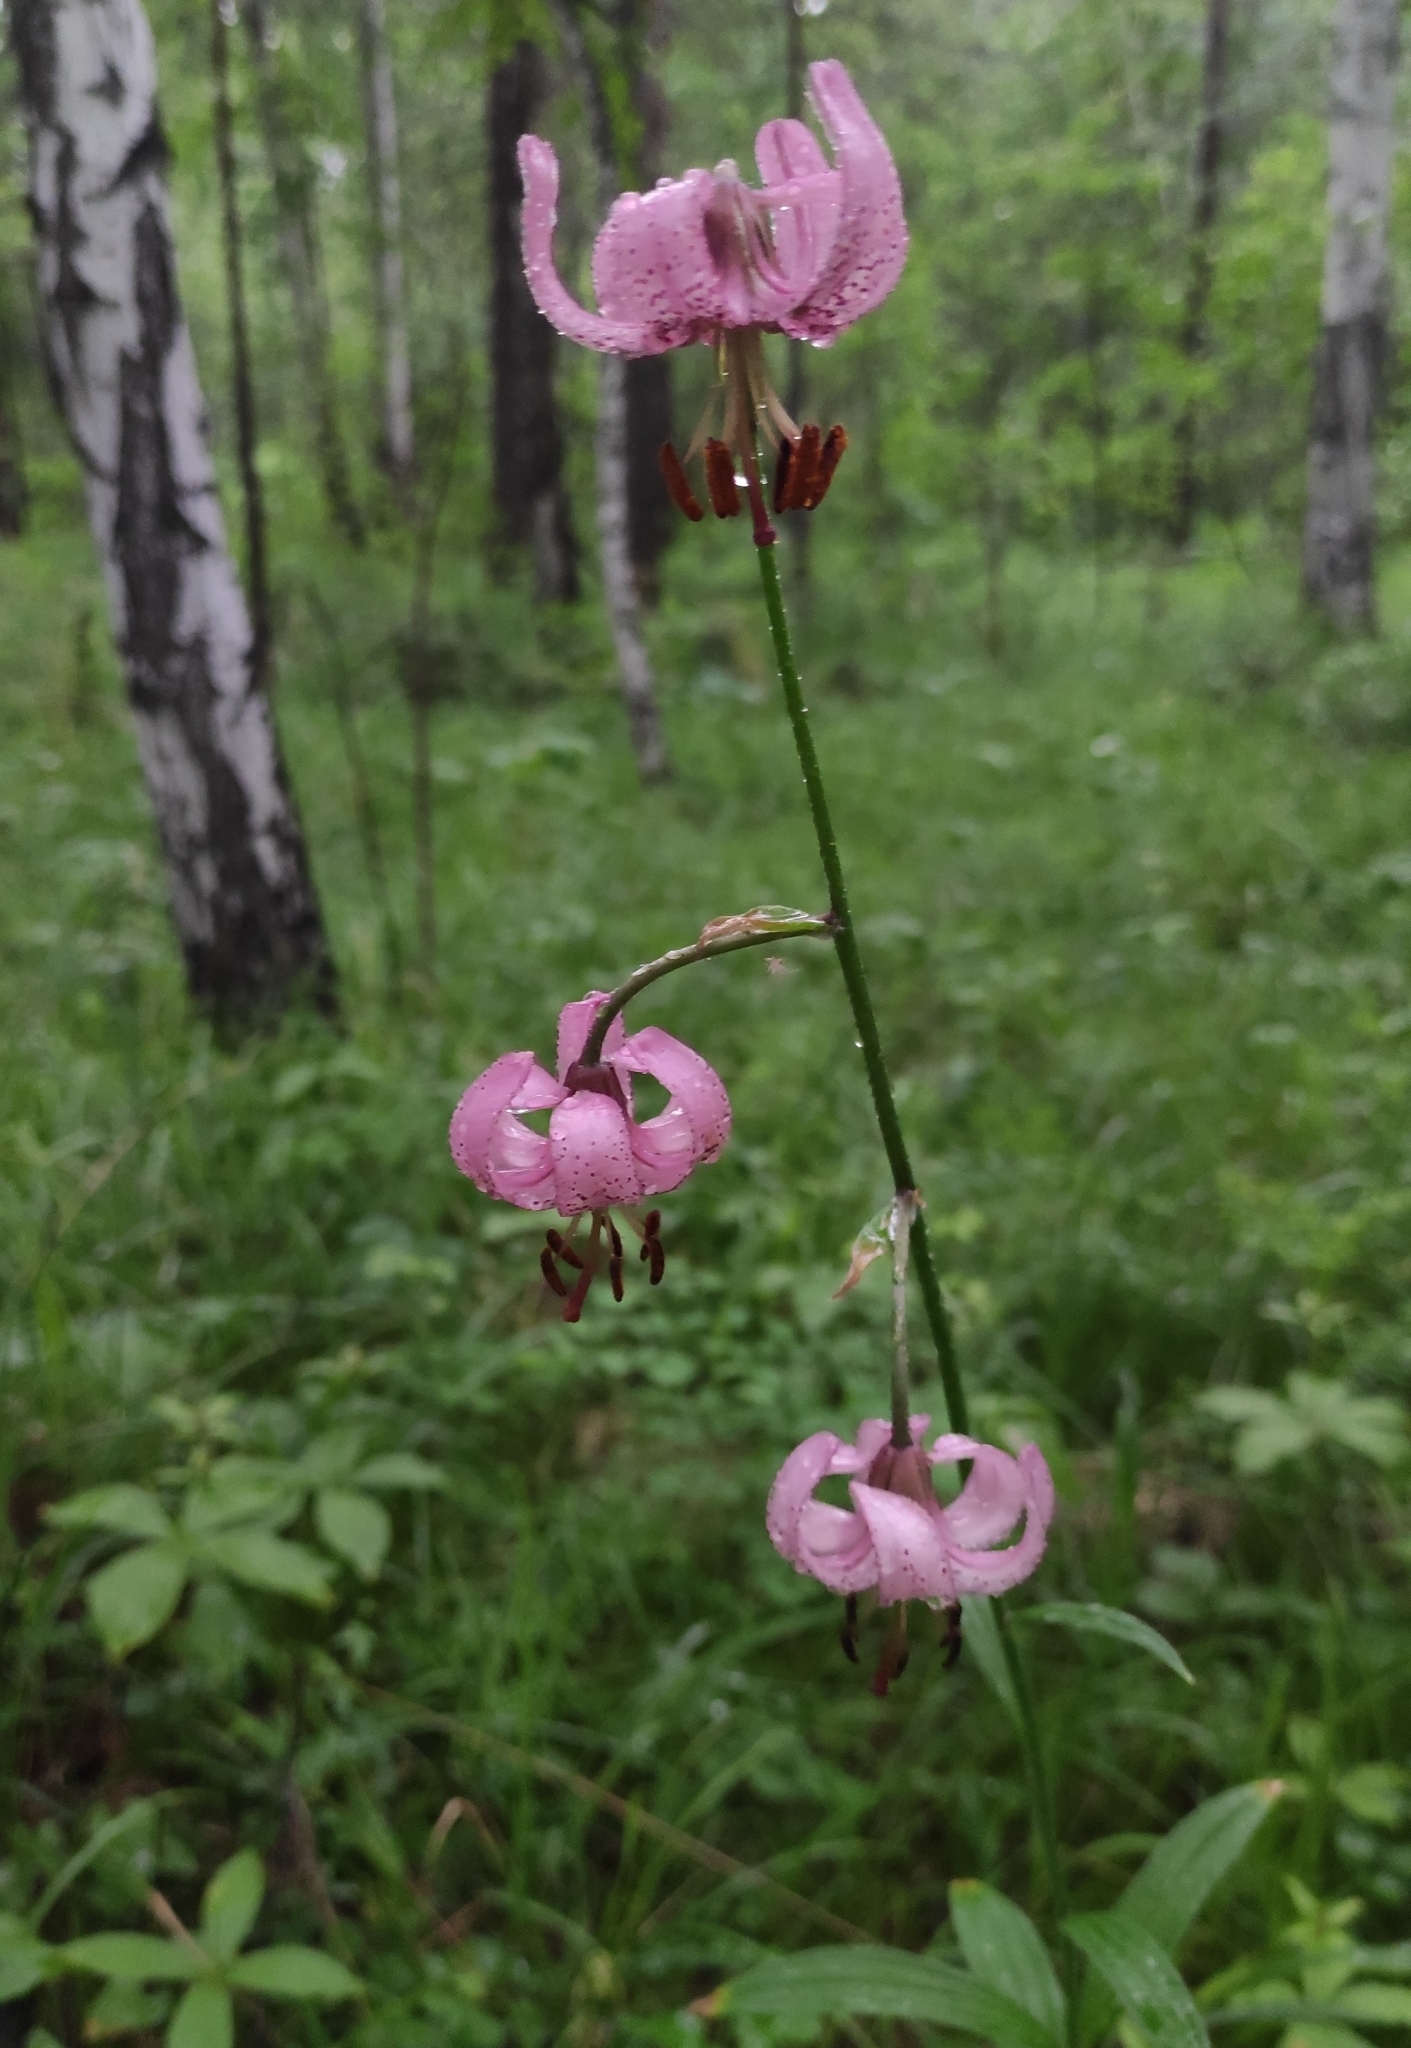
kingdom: Plantae
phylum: Tracheophyta
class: Liliopsida
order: Liliales
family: Liliaceae
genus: Lilium
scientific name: Lilium martagon
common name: Martagon lily
